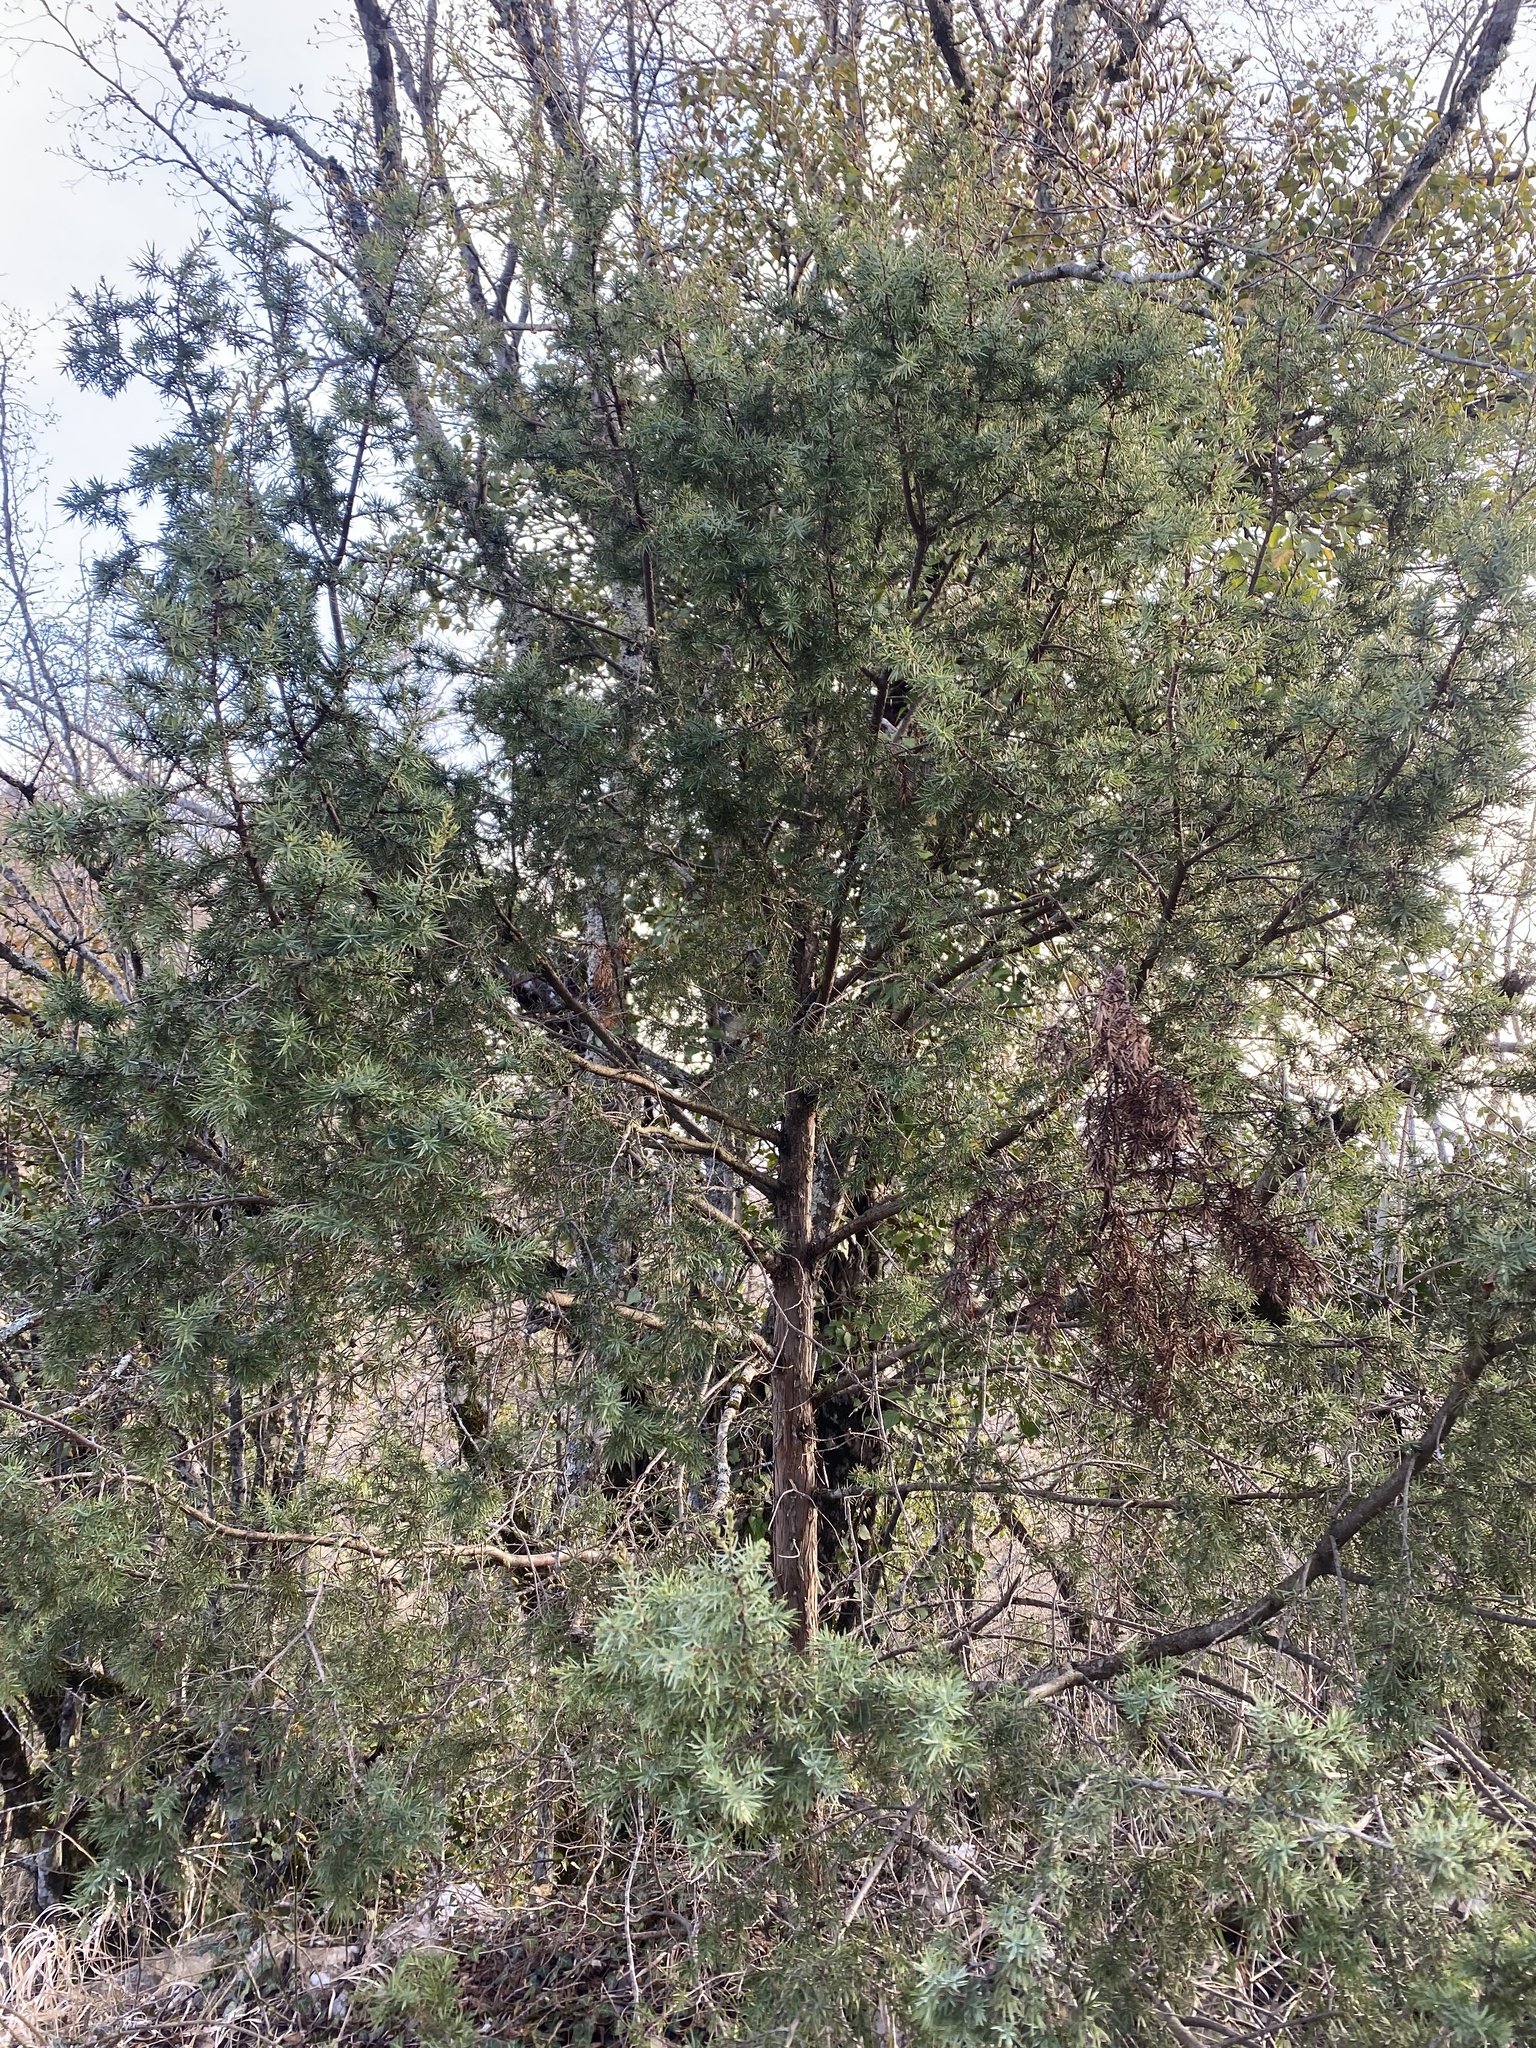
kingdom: Plantae
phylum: Tracheophyta
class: Pinopsida
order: Pinales
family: Cupressaceae
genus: Juniperus
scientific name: Juniperus oxycedrus
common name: Prickly juniper
